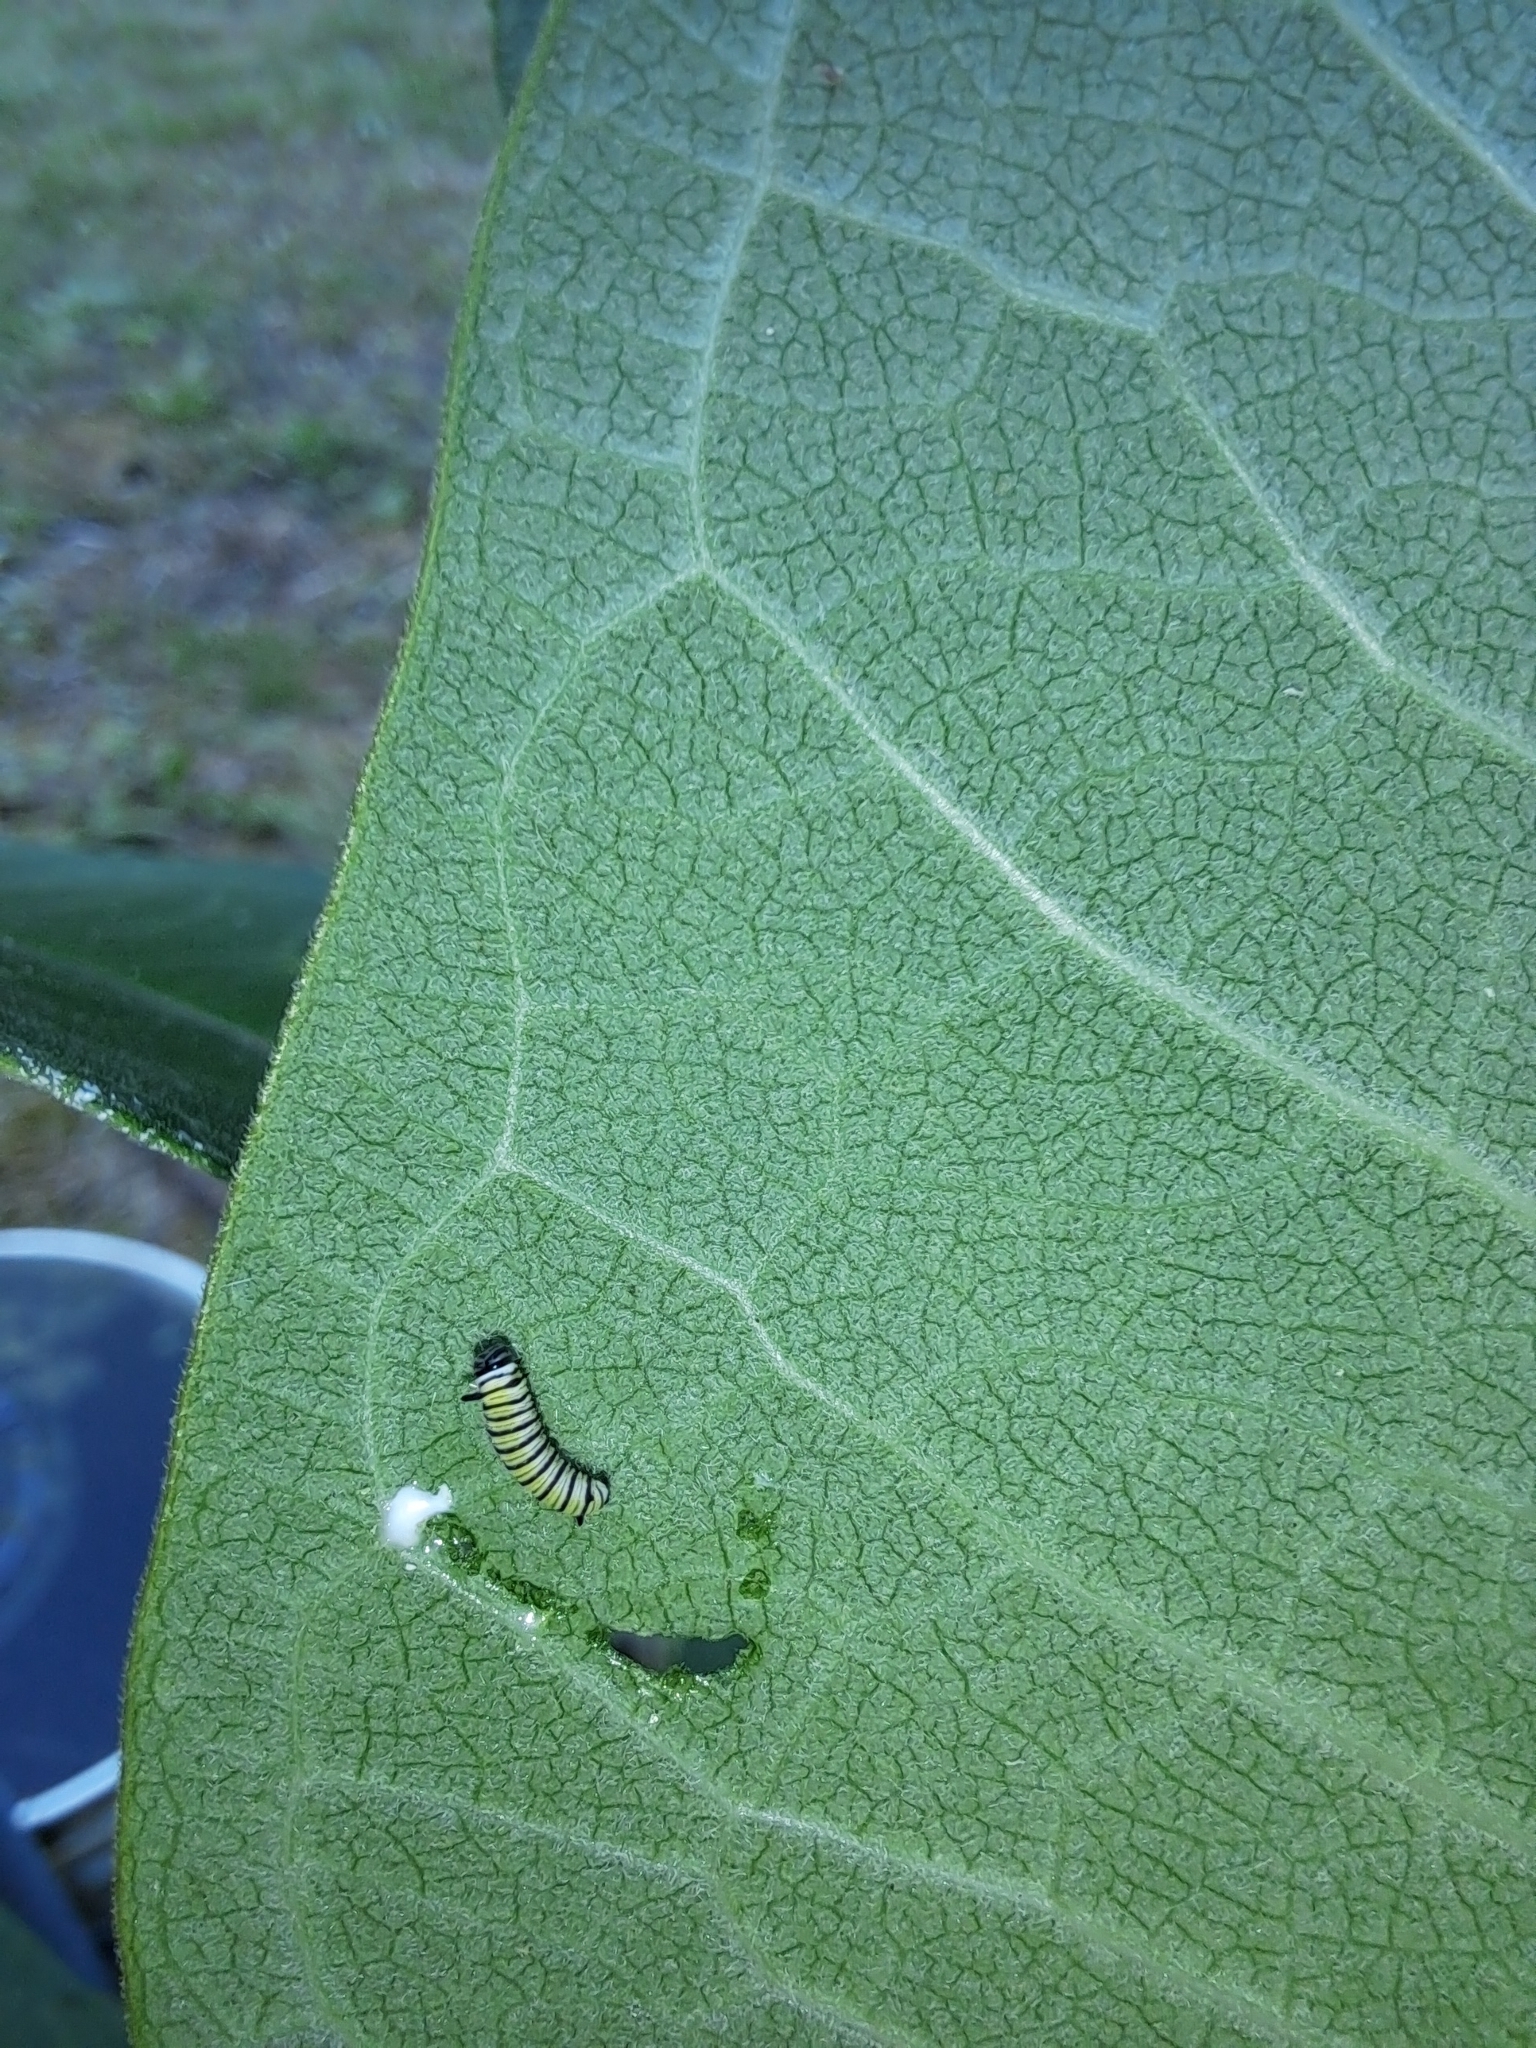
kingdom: Animalia
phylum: Arthropoda
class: Insecta
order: Lepidoptera
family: Nymphalidae
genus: Danaus
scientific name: Danaus plexippus
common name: Monarch
